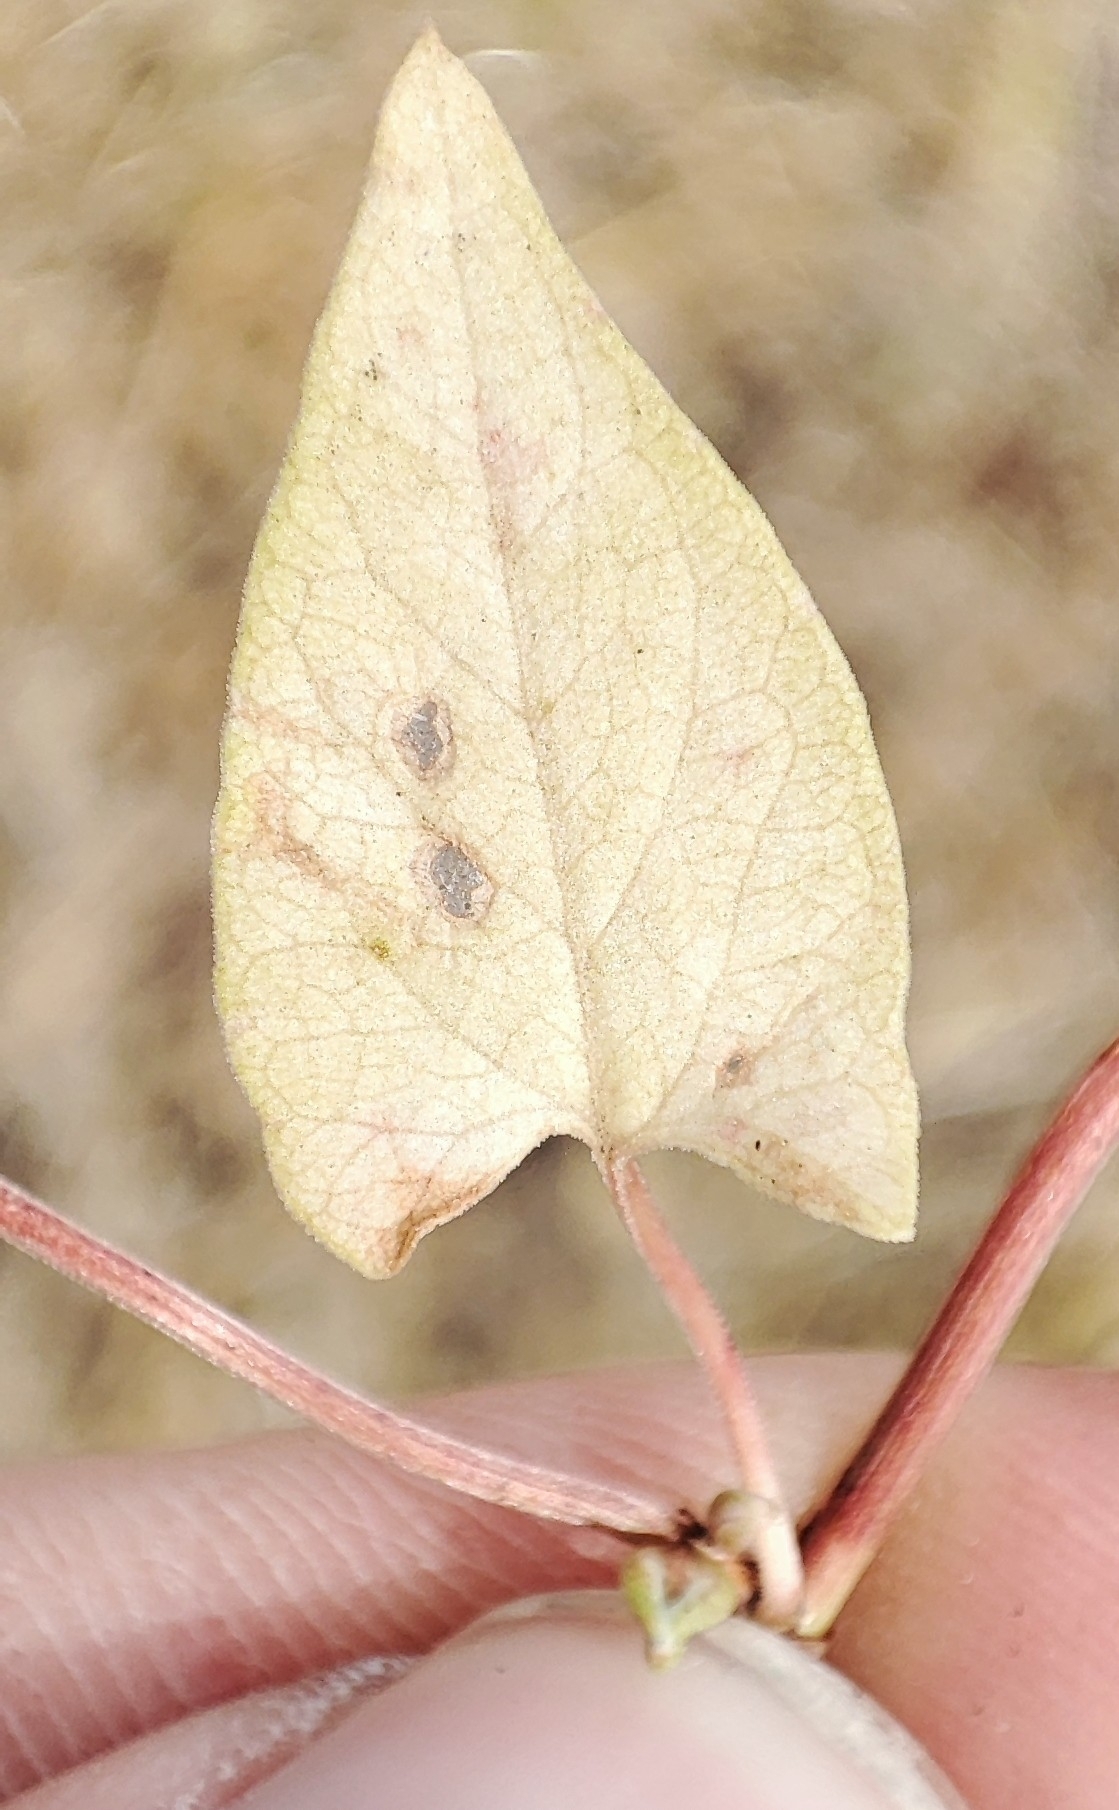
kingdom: Plantae
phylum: Tracheophyta
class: Magnoliopsida
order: Caryophyllales
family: Polygonaceae
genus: Fallopia
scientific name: Fallopia convolvulus
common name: Black bindweed
